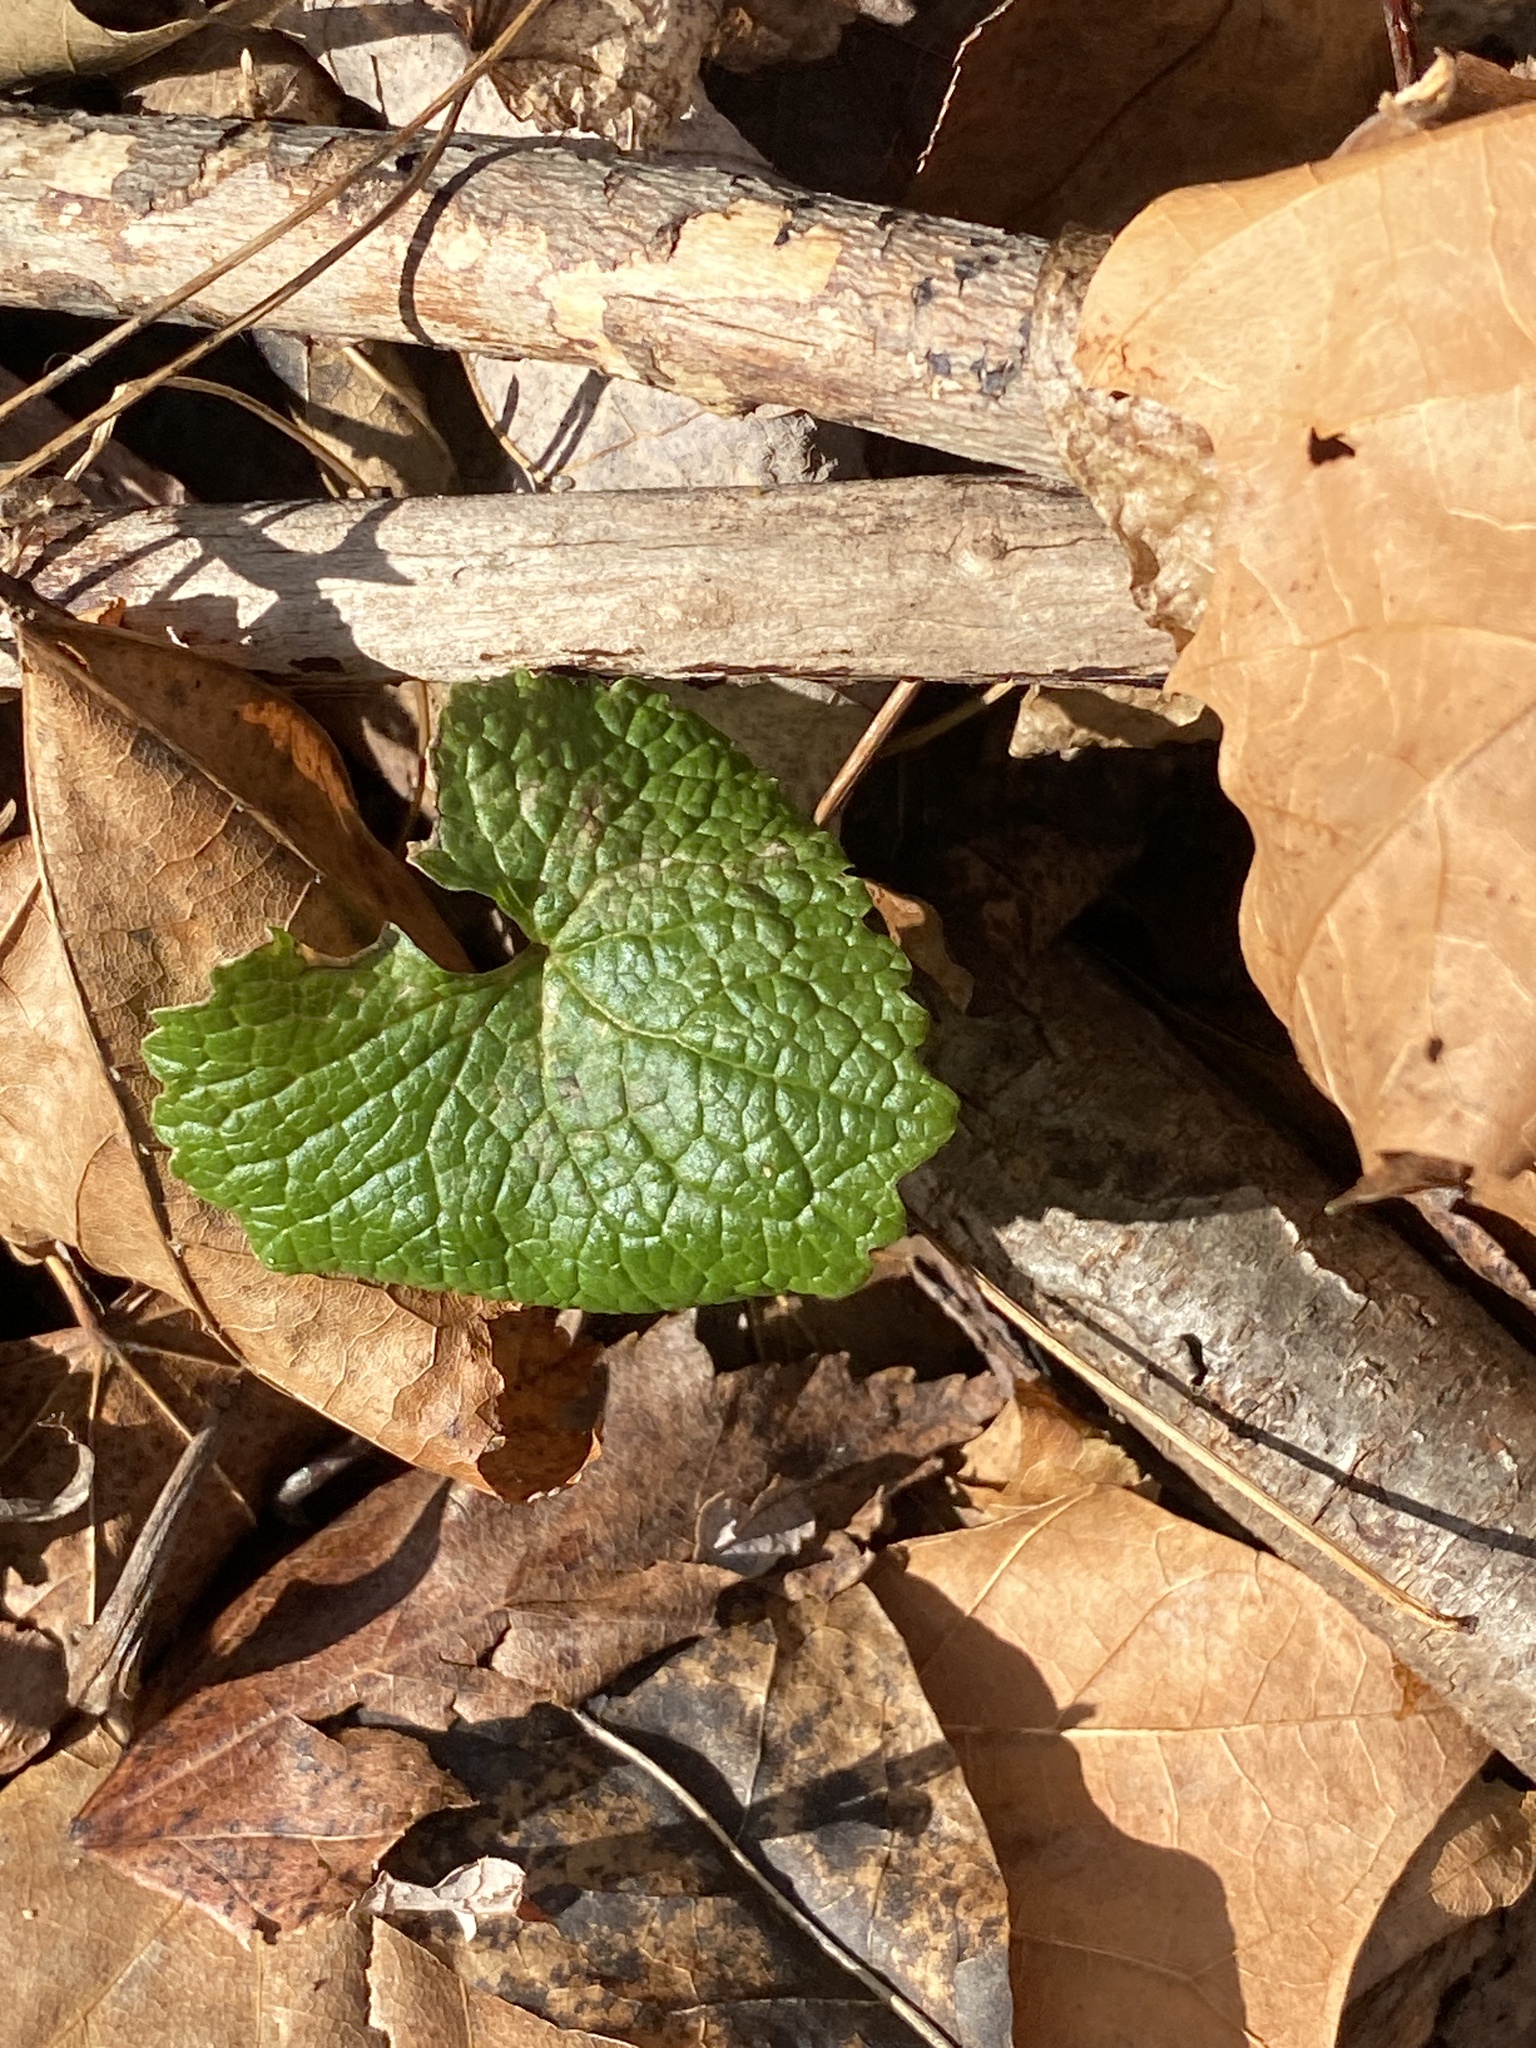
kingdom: Plantae
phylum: Tracheophyta
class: Magnoliopsida
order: Brassicales
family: Brassicaceae
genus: Alliaria
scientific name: Alliaria petiolata
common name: Garlic mustard
